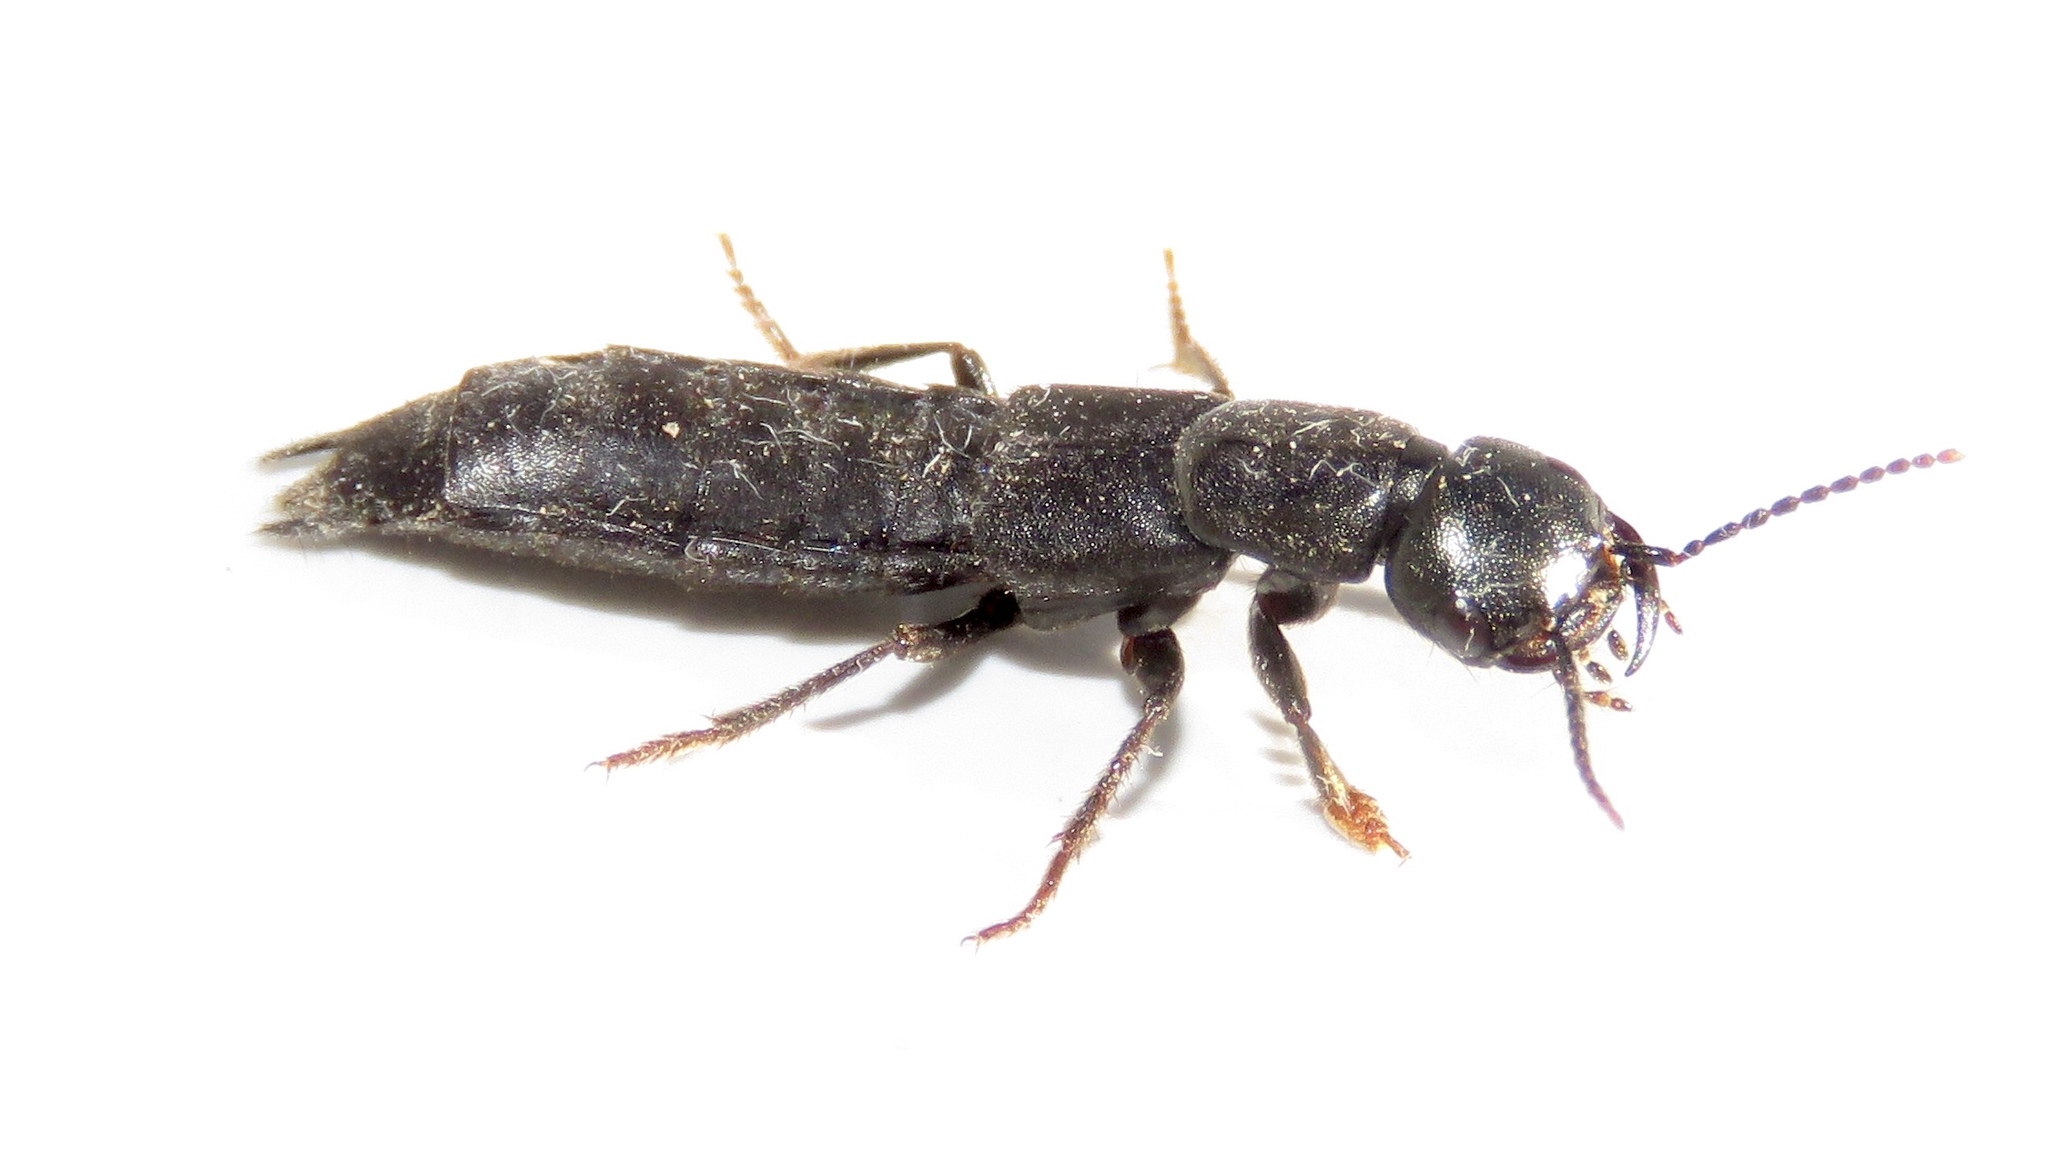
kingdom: Animalia
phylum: Arthropoda
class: Insecta
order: Coleoptera
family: Staphylinidae
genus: Tasgius
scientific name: Tasgius melanarius
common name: Rove beetle
